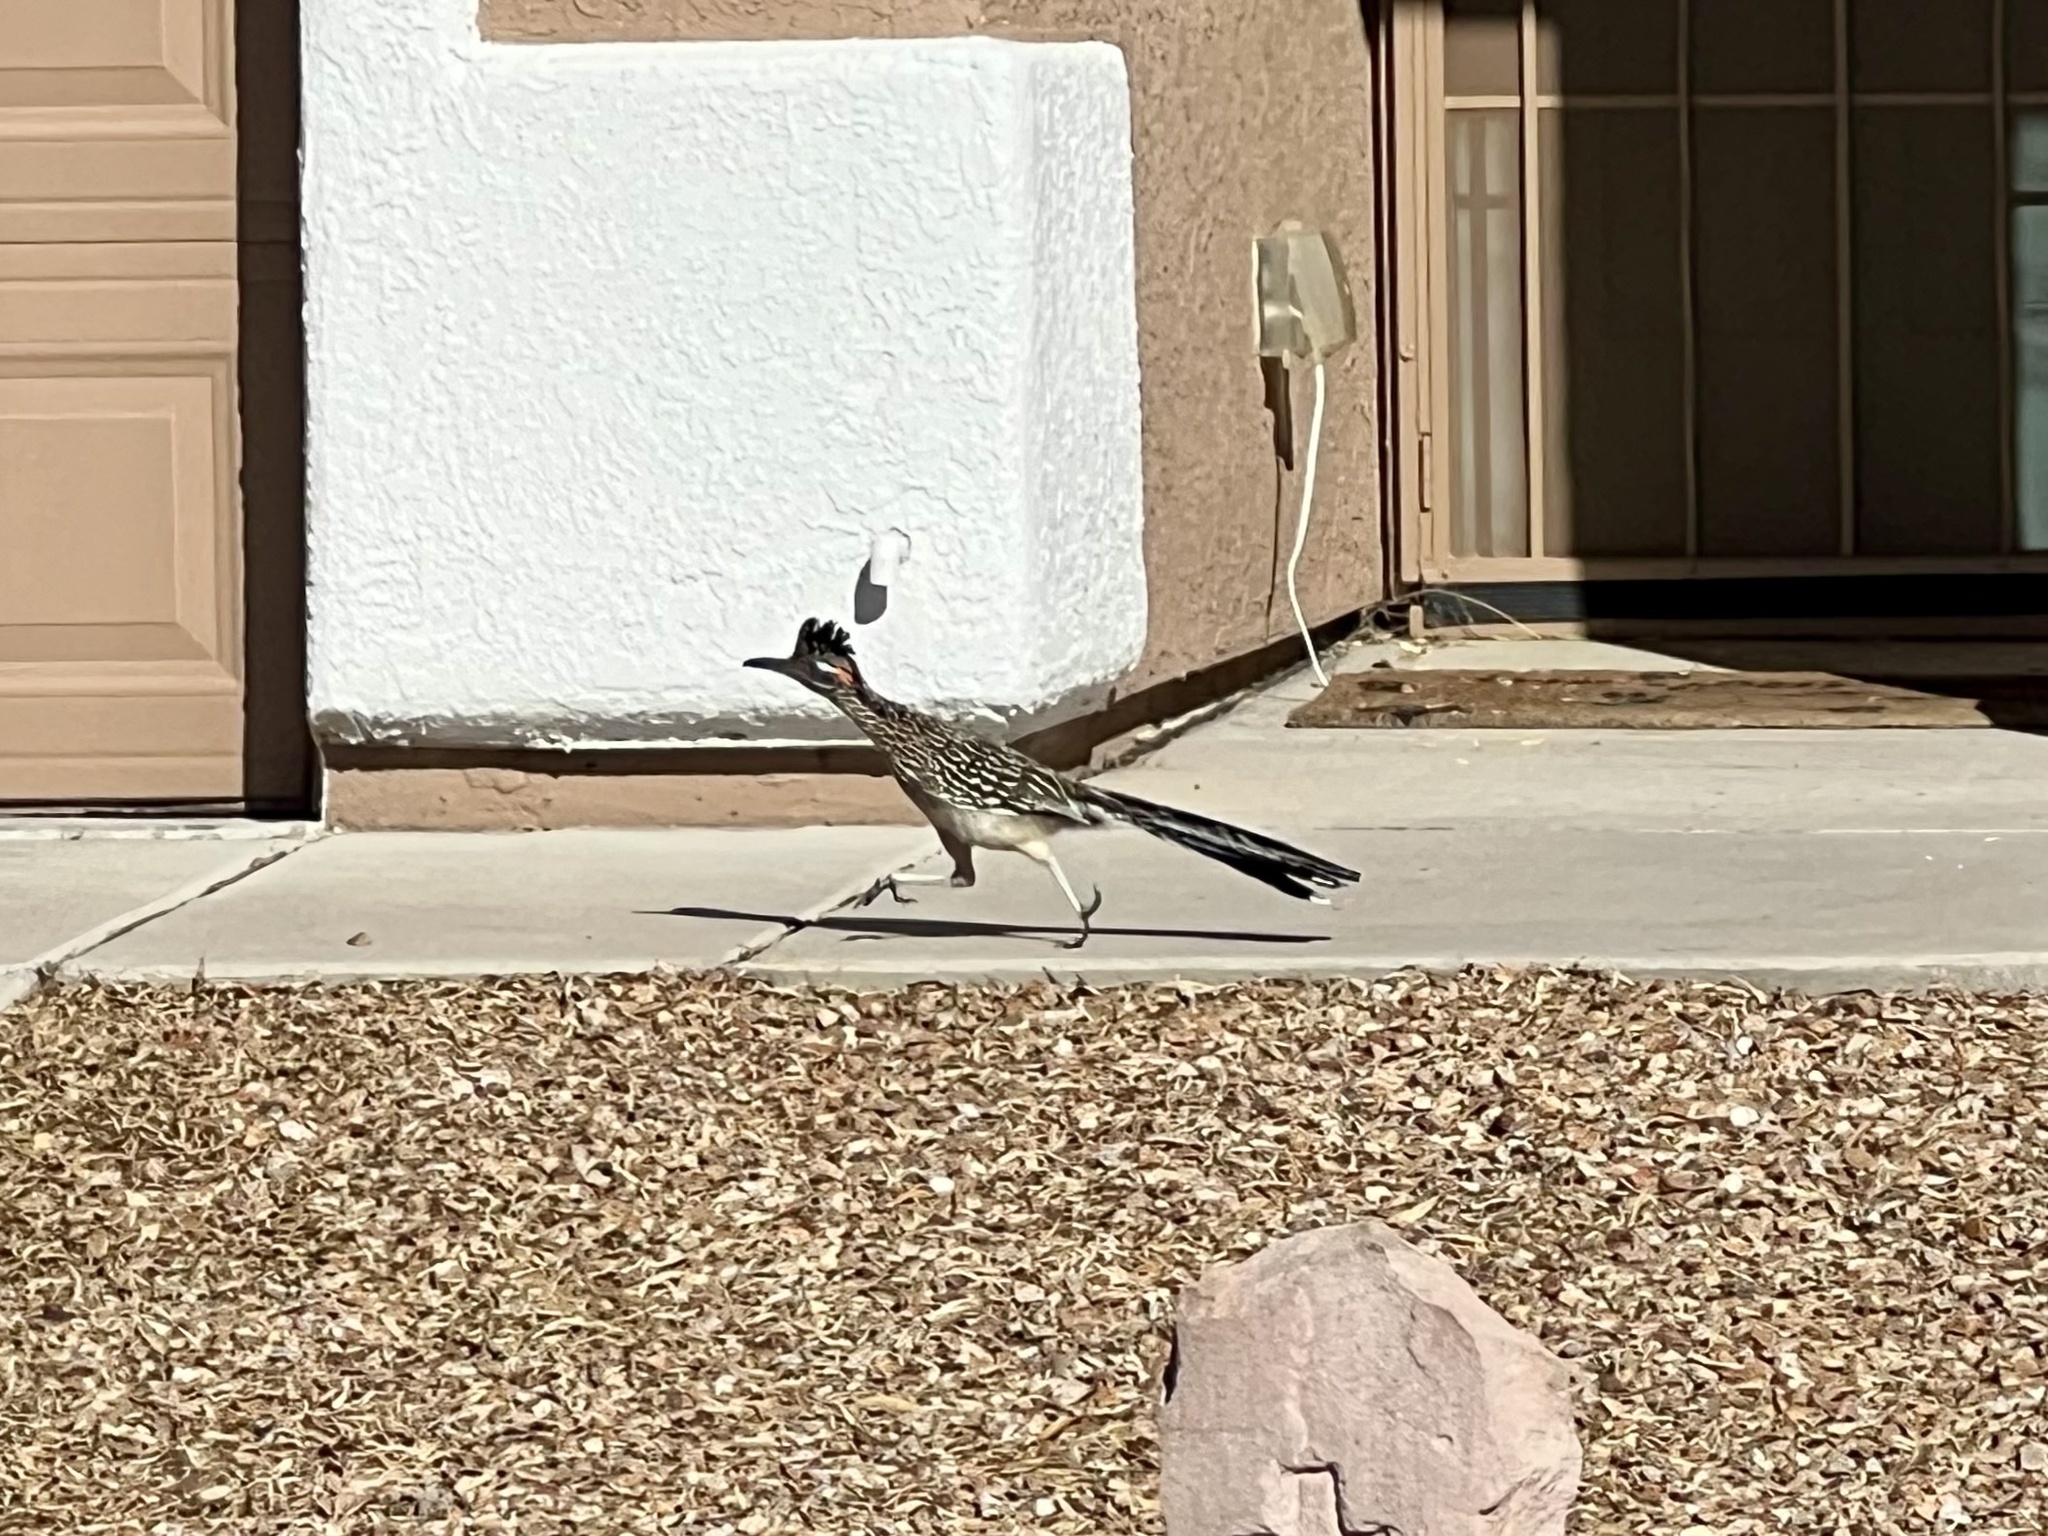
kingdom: Animalia
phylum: Chordata
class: Aves
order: Cuculiformes
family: Cuculidae
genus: Geococcyx
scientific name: Geococcyx californianus
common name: Greater roadrunner
